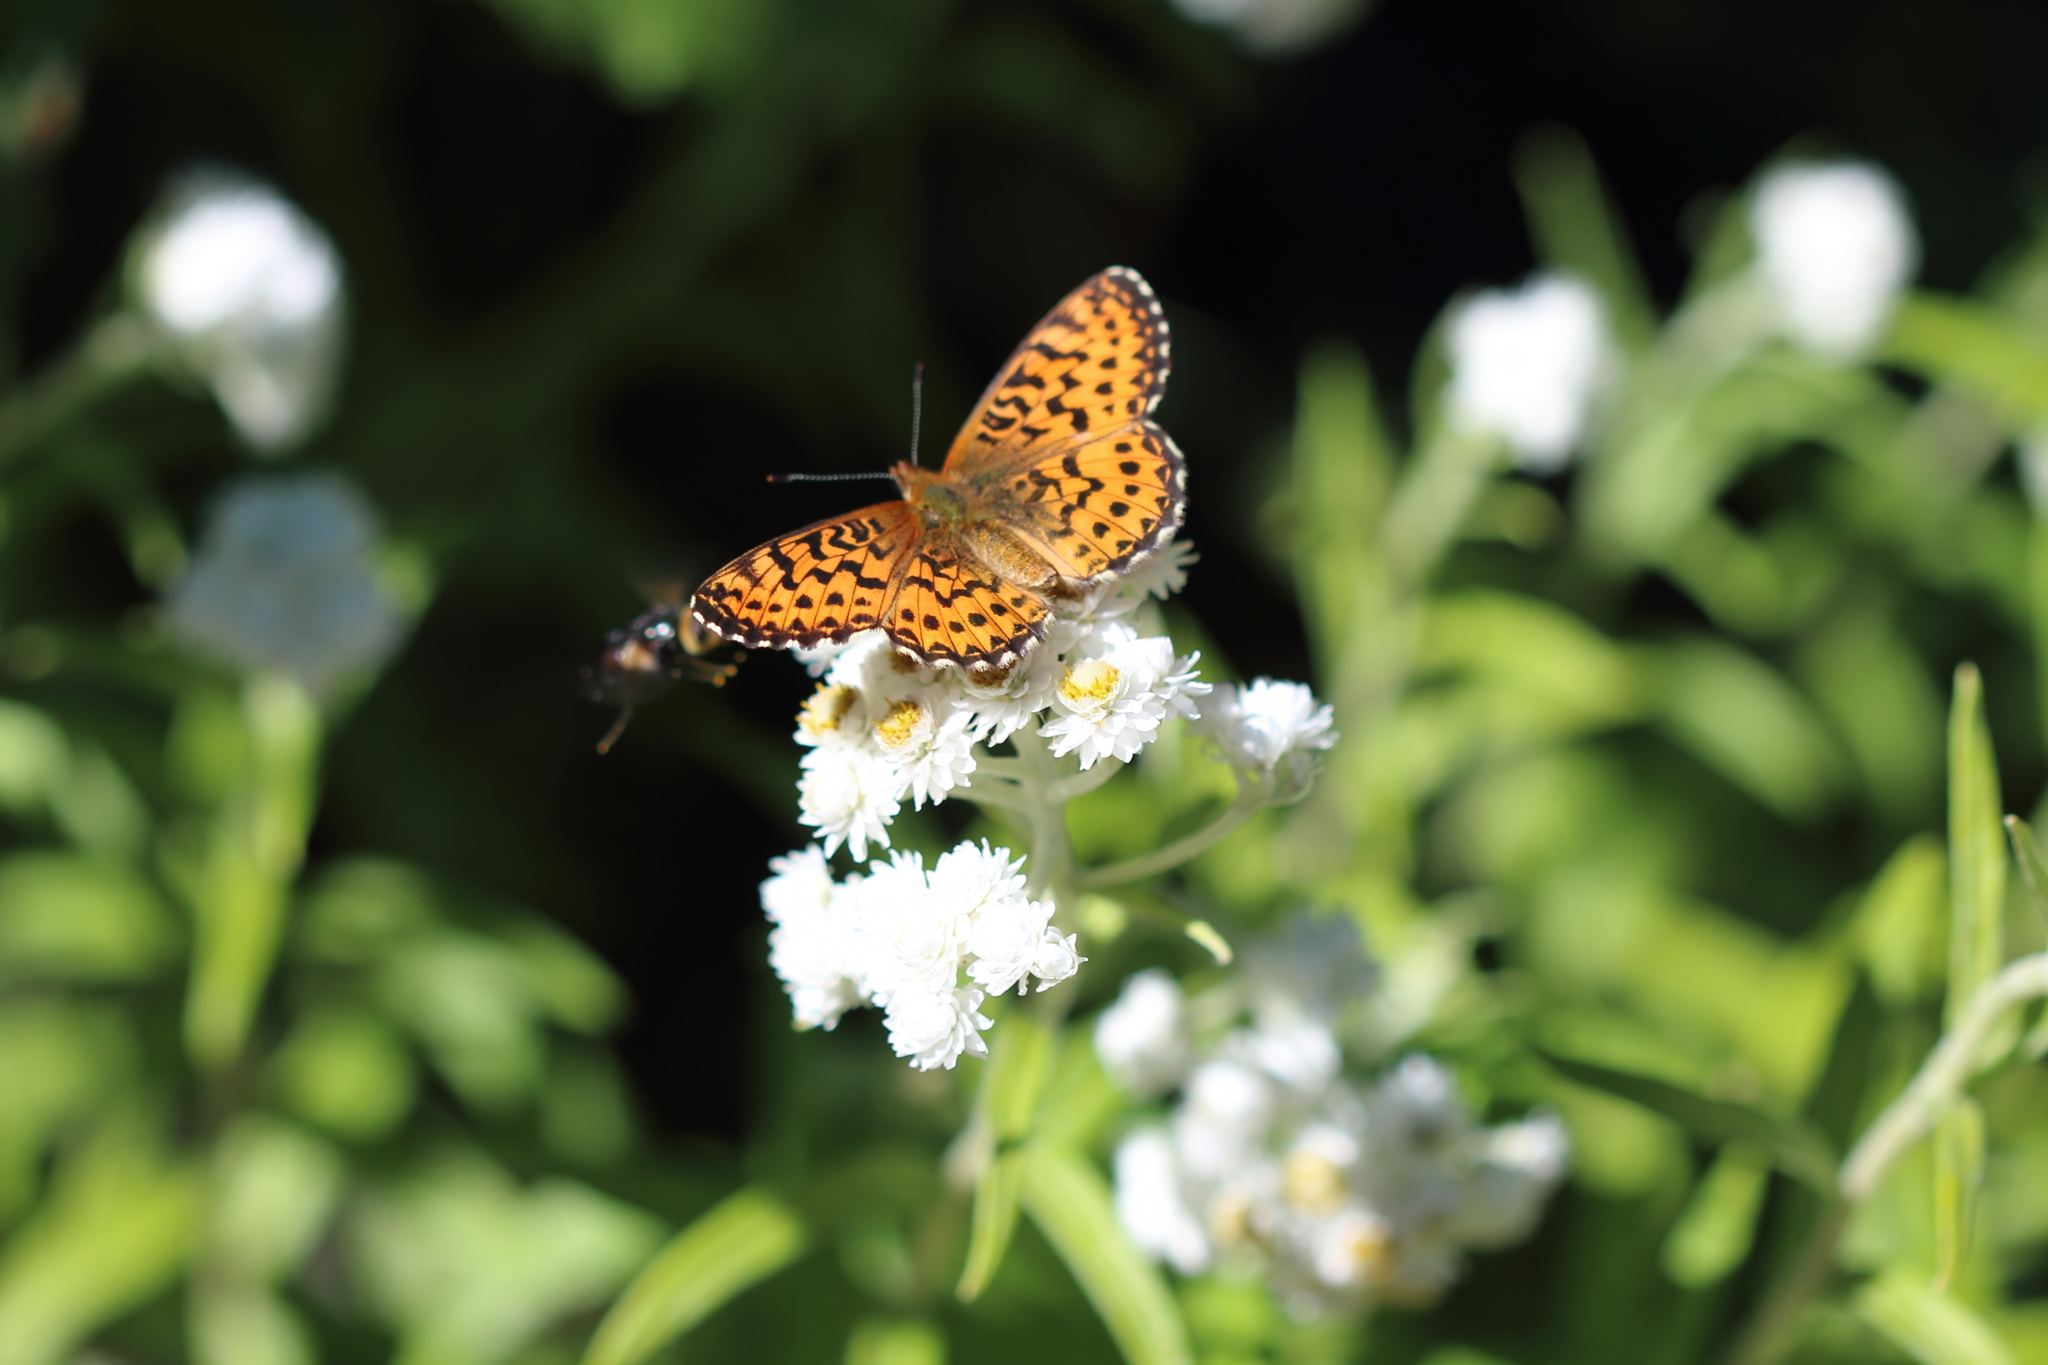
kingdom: Animalia
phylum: Arthropoda
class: Insecta
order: Lepidoptera
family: Nymphalidae
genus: Clossiana
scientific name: Clossiana chariclea
